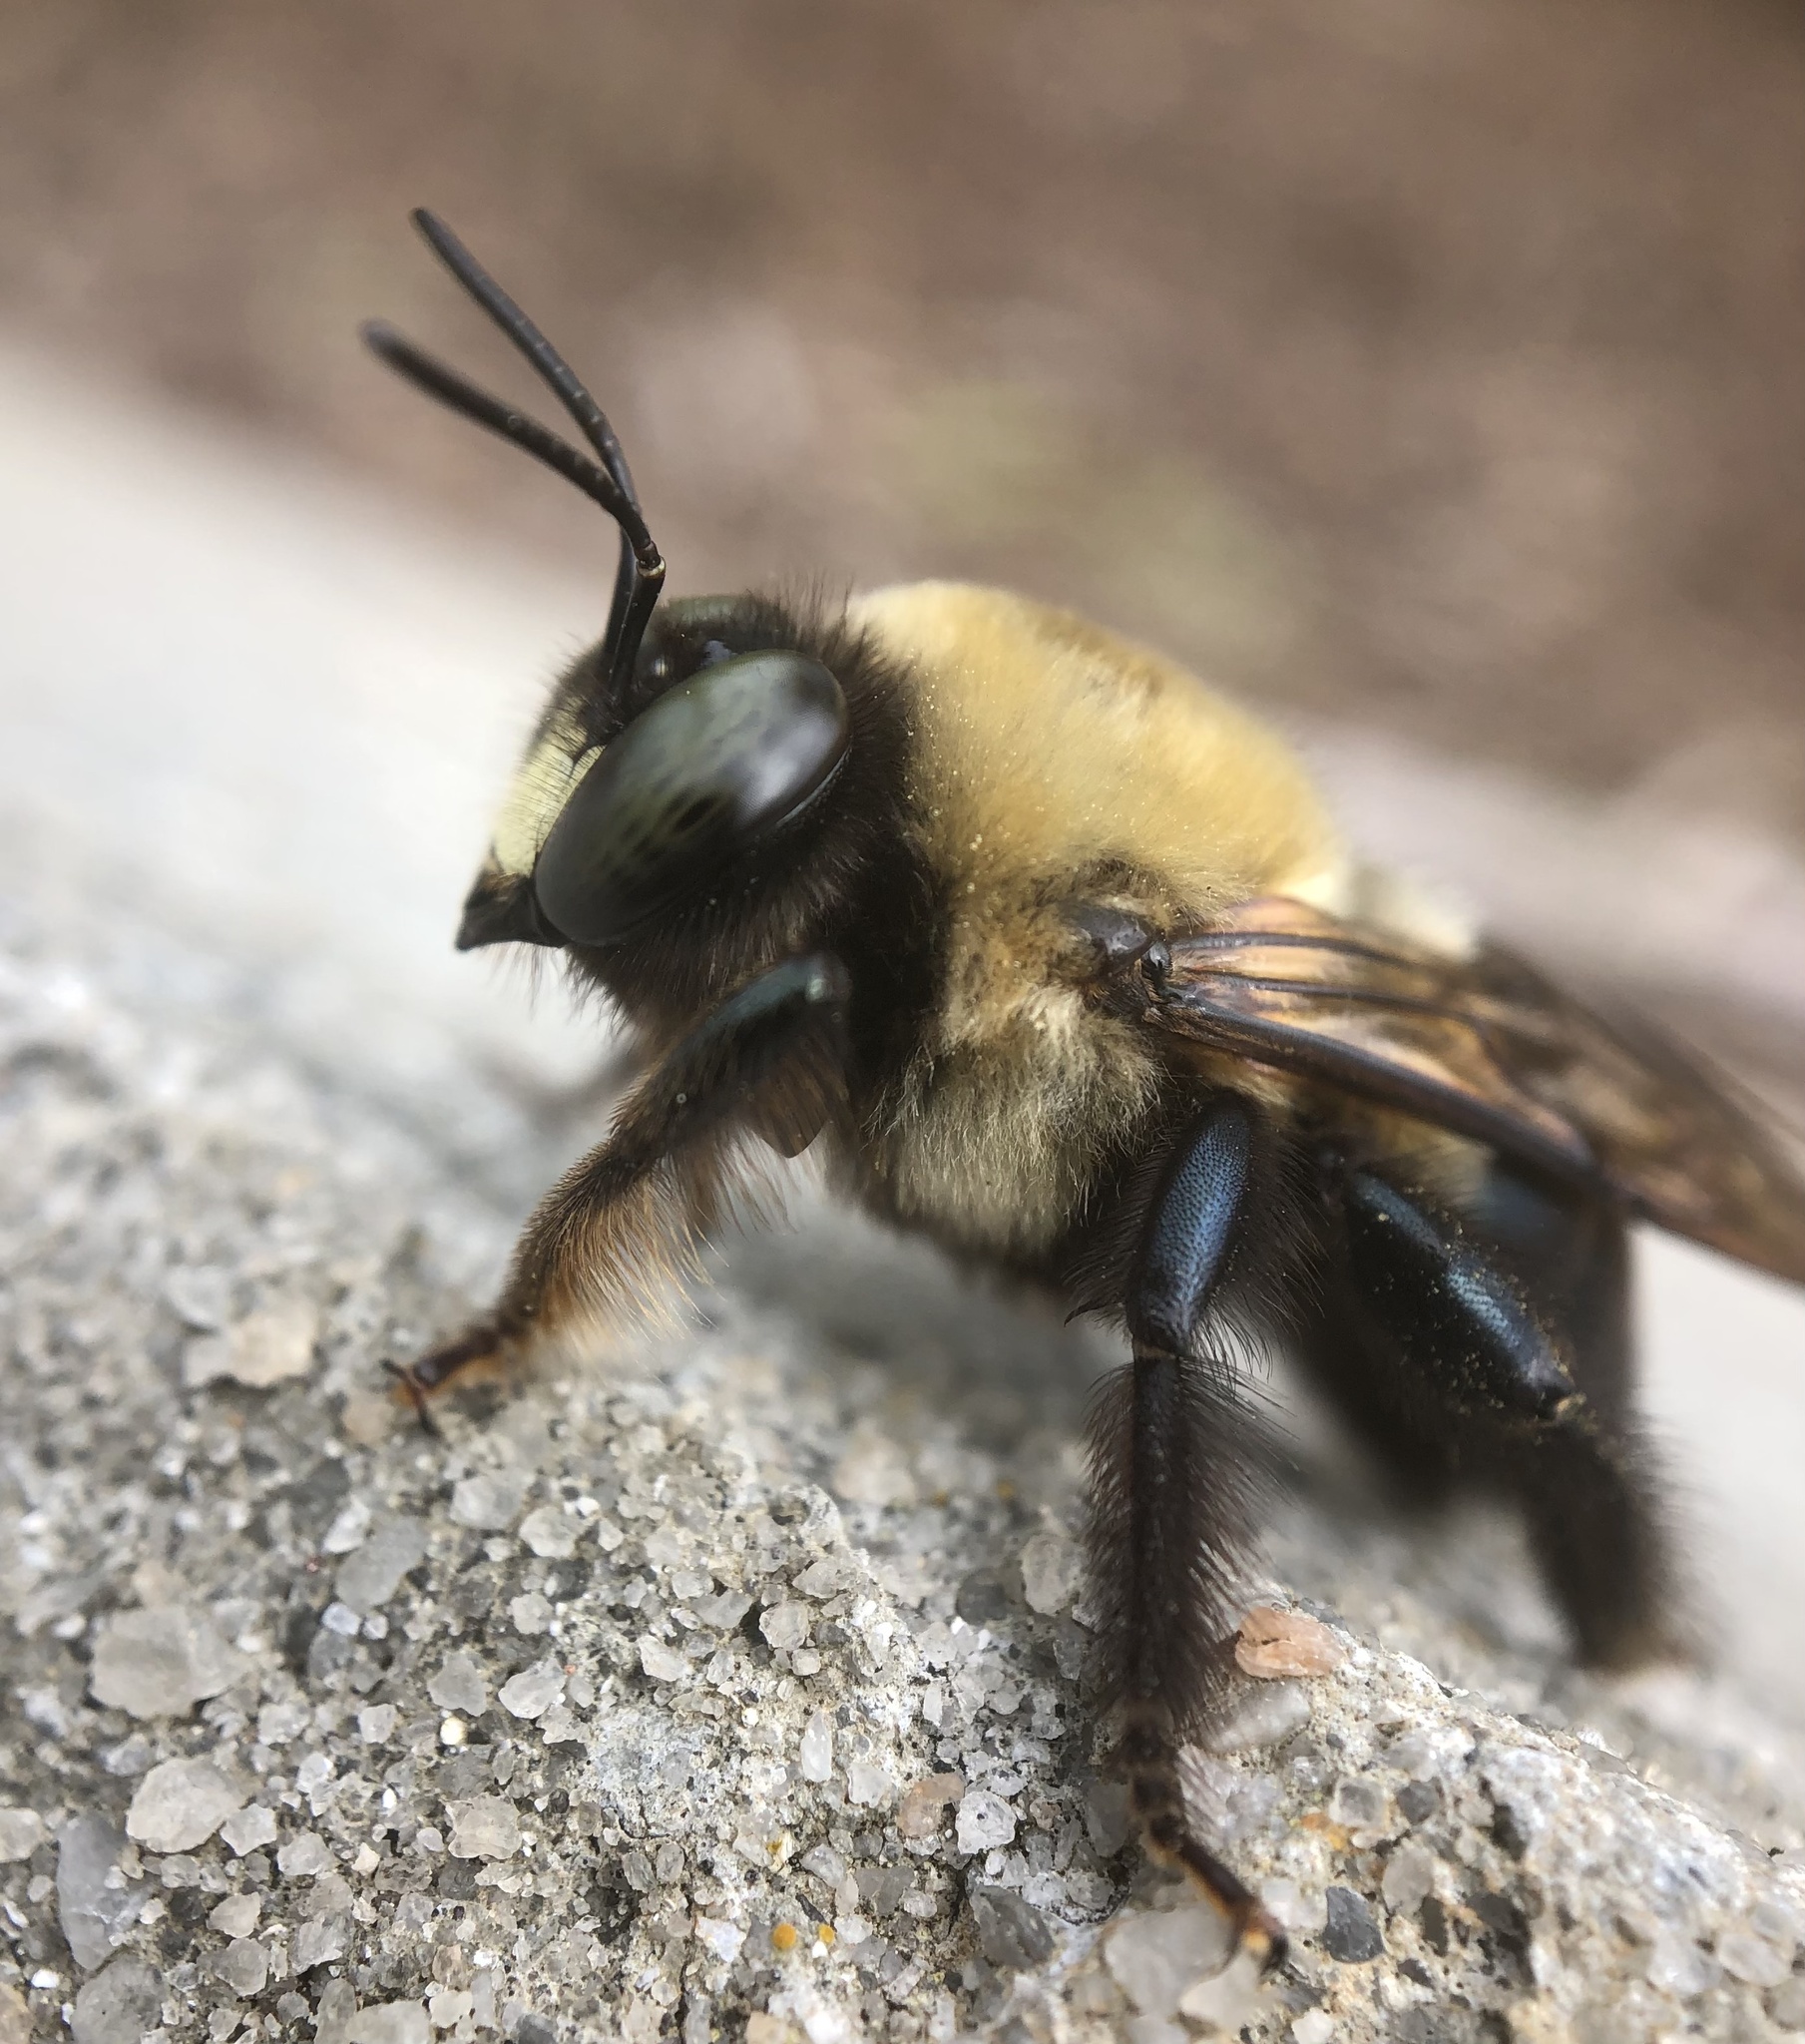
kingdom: Animalia
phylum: Arthropoda
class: Insecta
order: Hymenoptera
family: Apidae
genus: Xylocopa
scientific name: Xylocopa virginica
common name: Carpenter bee
